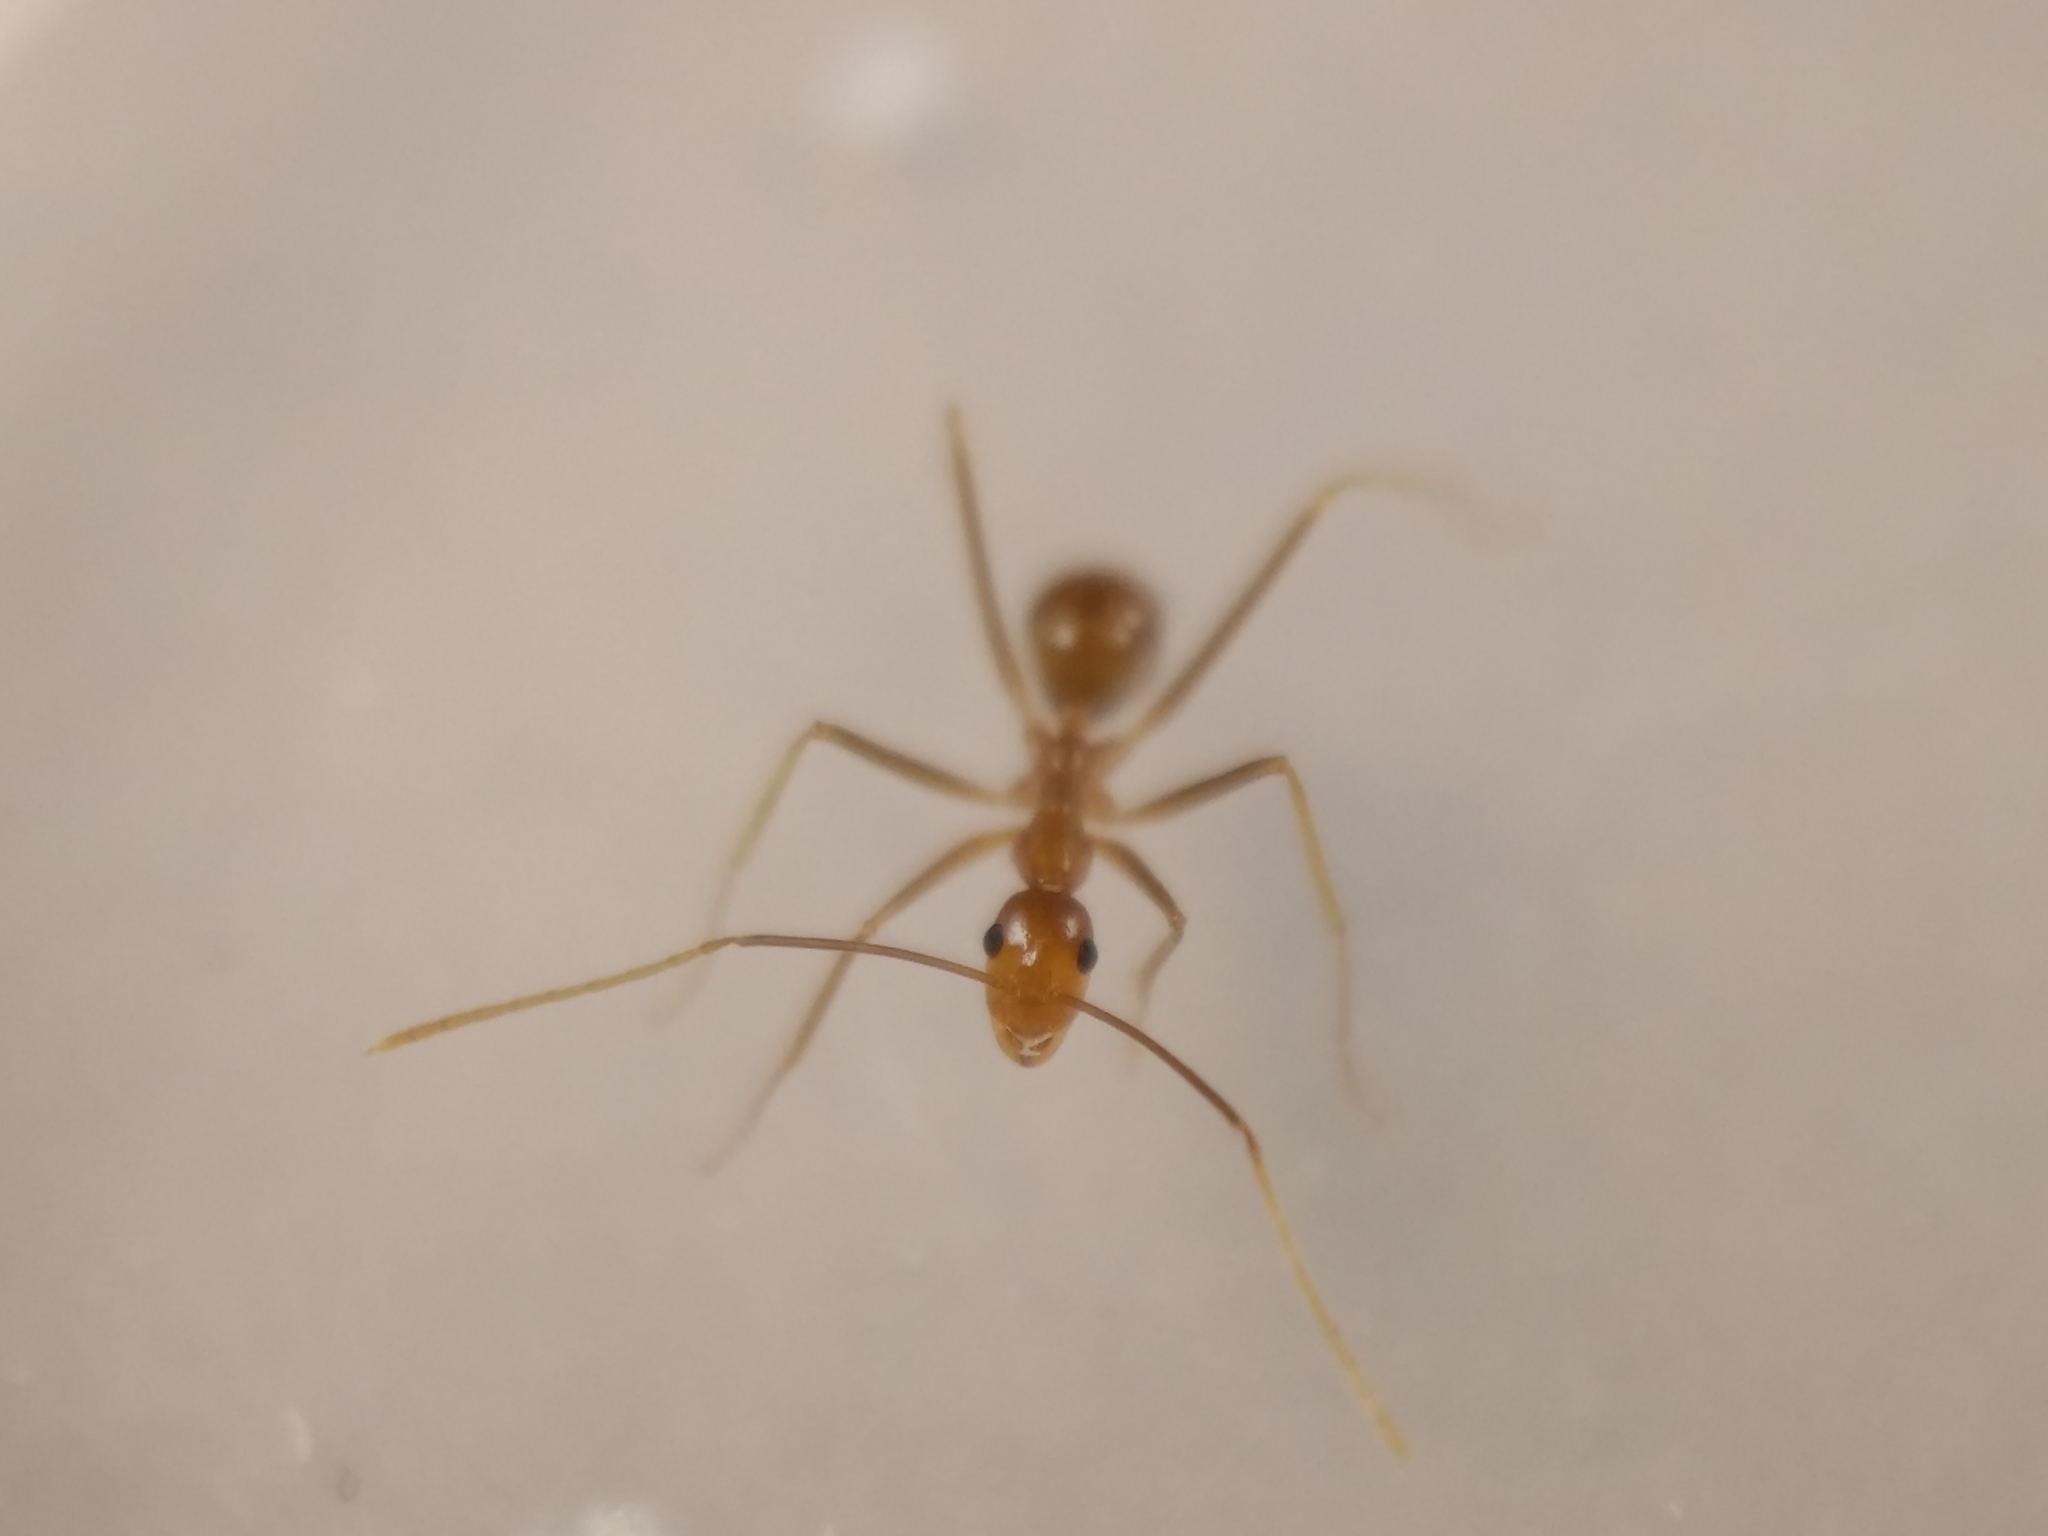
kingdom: Animalia
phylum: Arthropoda
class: Insecta
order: Hymenoptera
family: Formicidae
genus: Anoplolepis
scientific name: Anoplolepis gracilipes
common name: Ant
